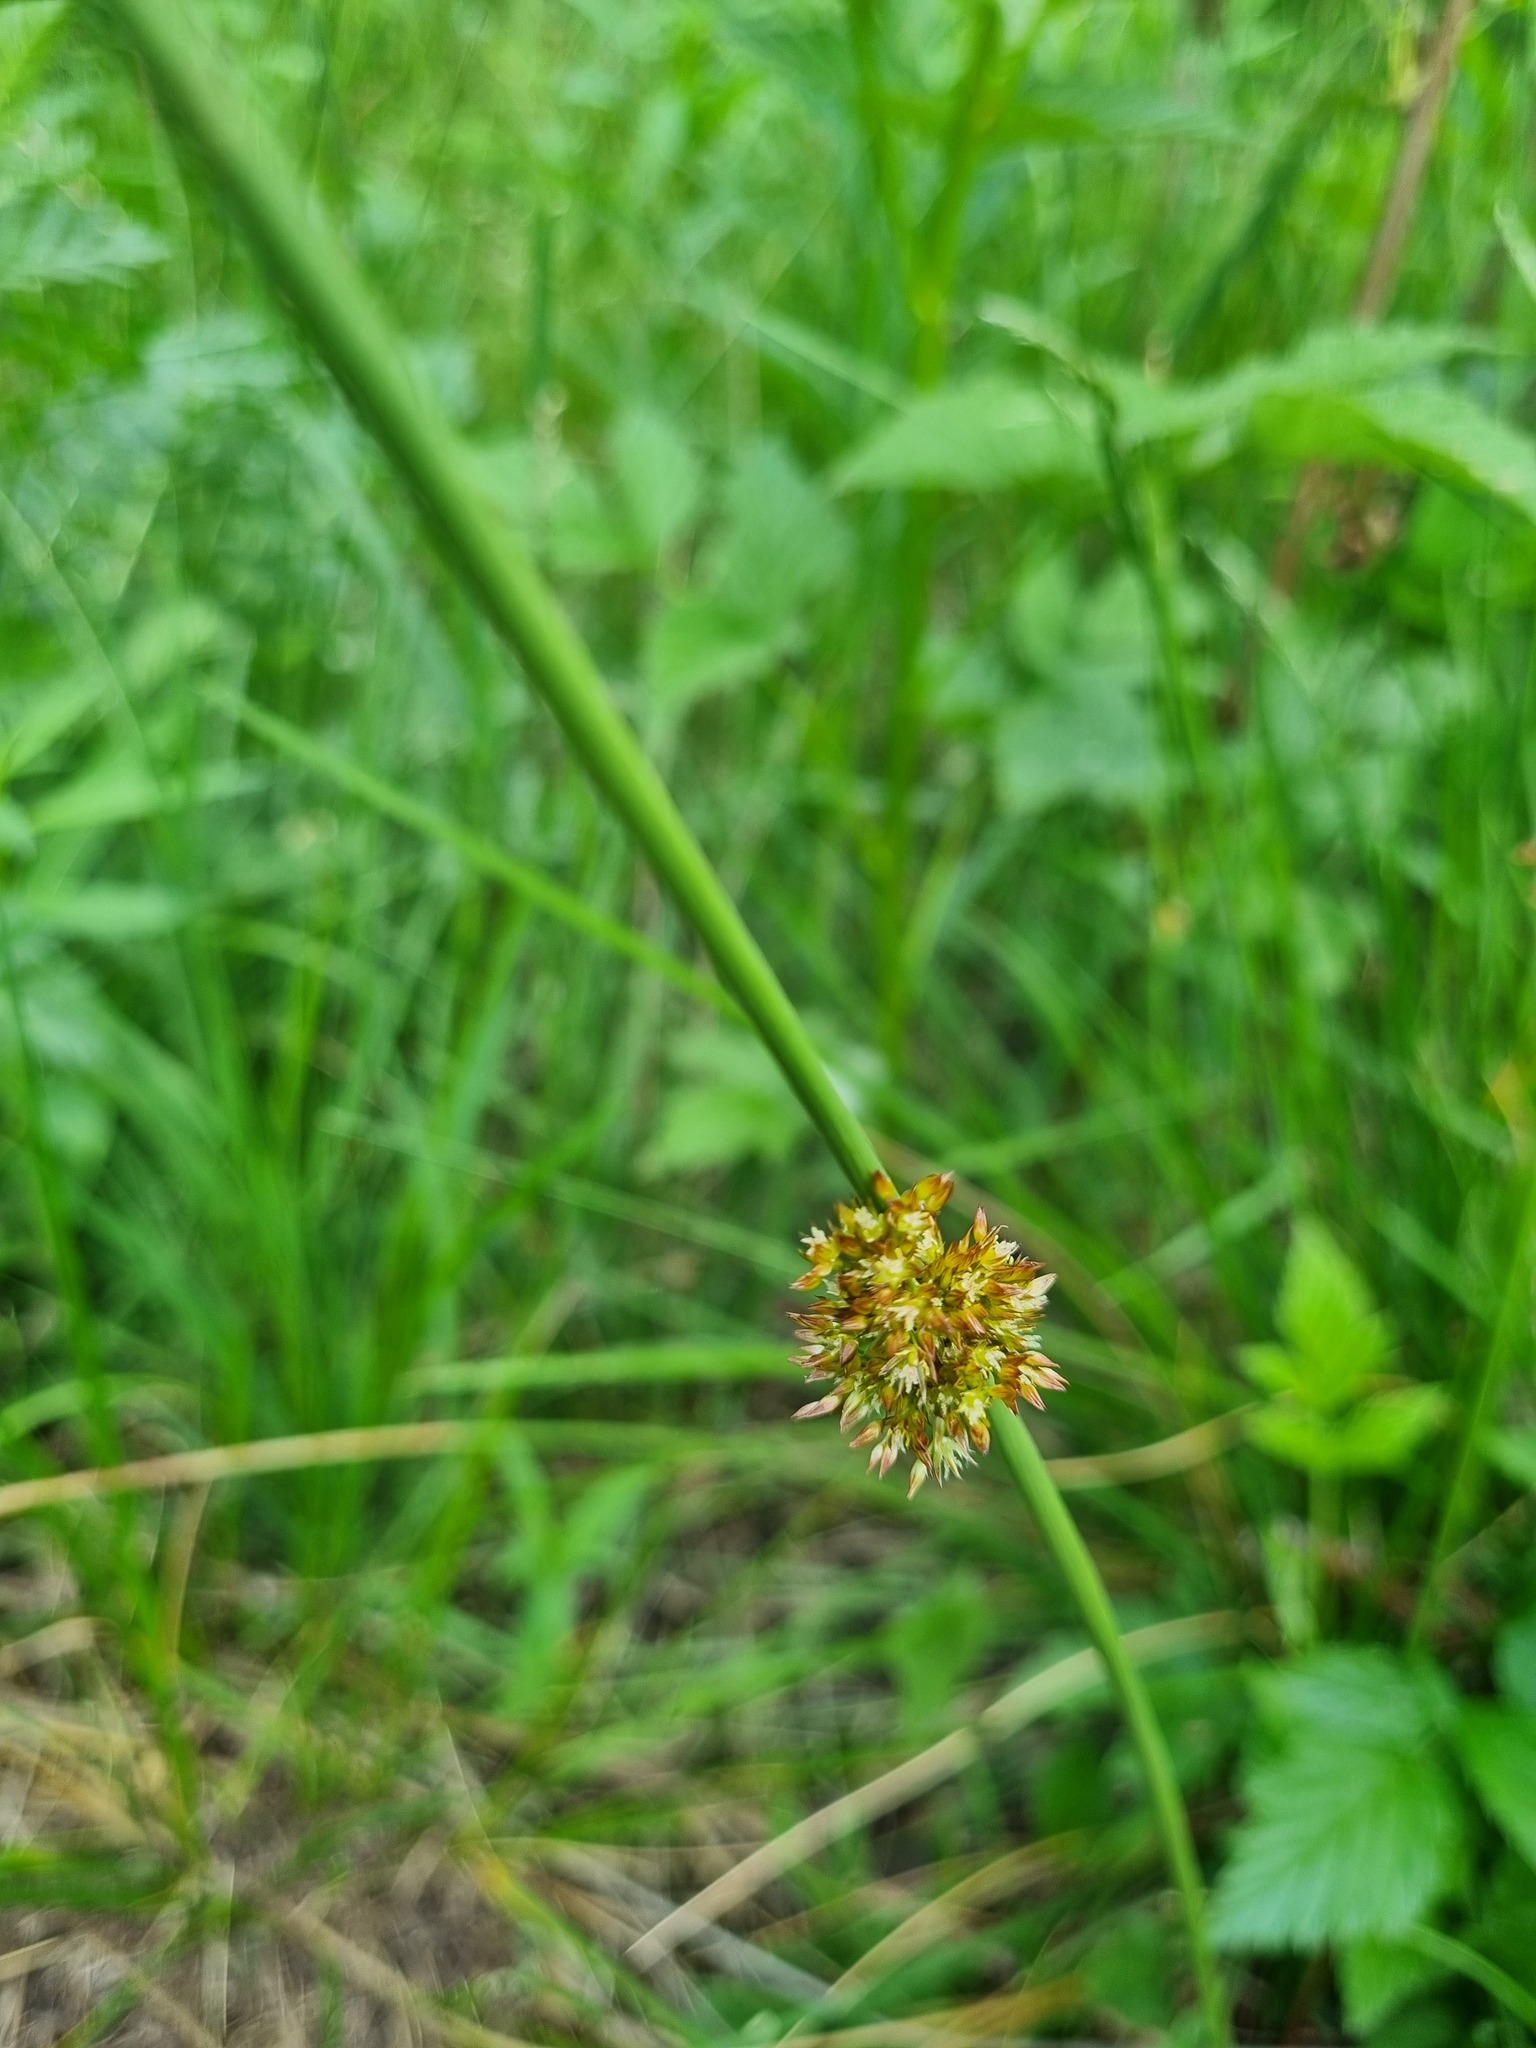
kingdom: Plantae
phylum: Tracheophyta
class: Liliopsida
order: Poales
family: Juncaceae
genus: Juncus
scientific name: Juncus effusus
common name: Soft rush
